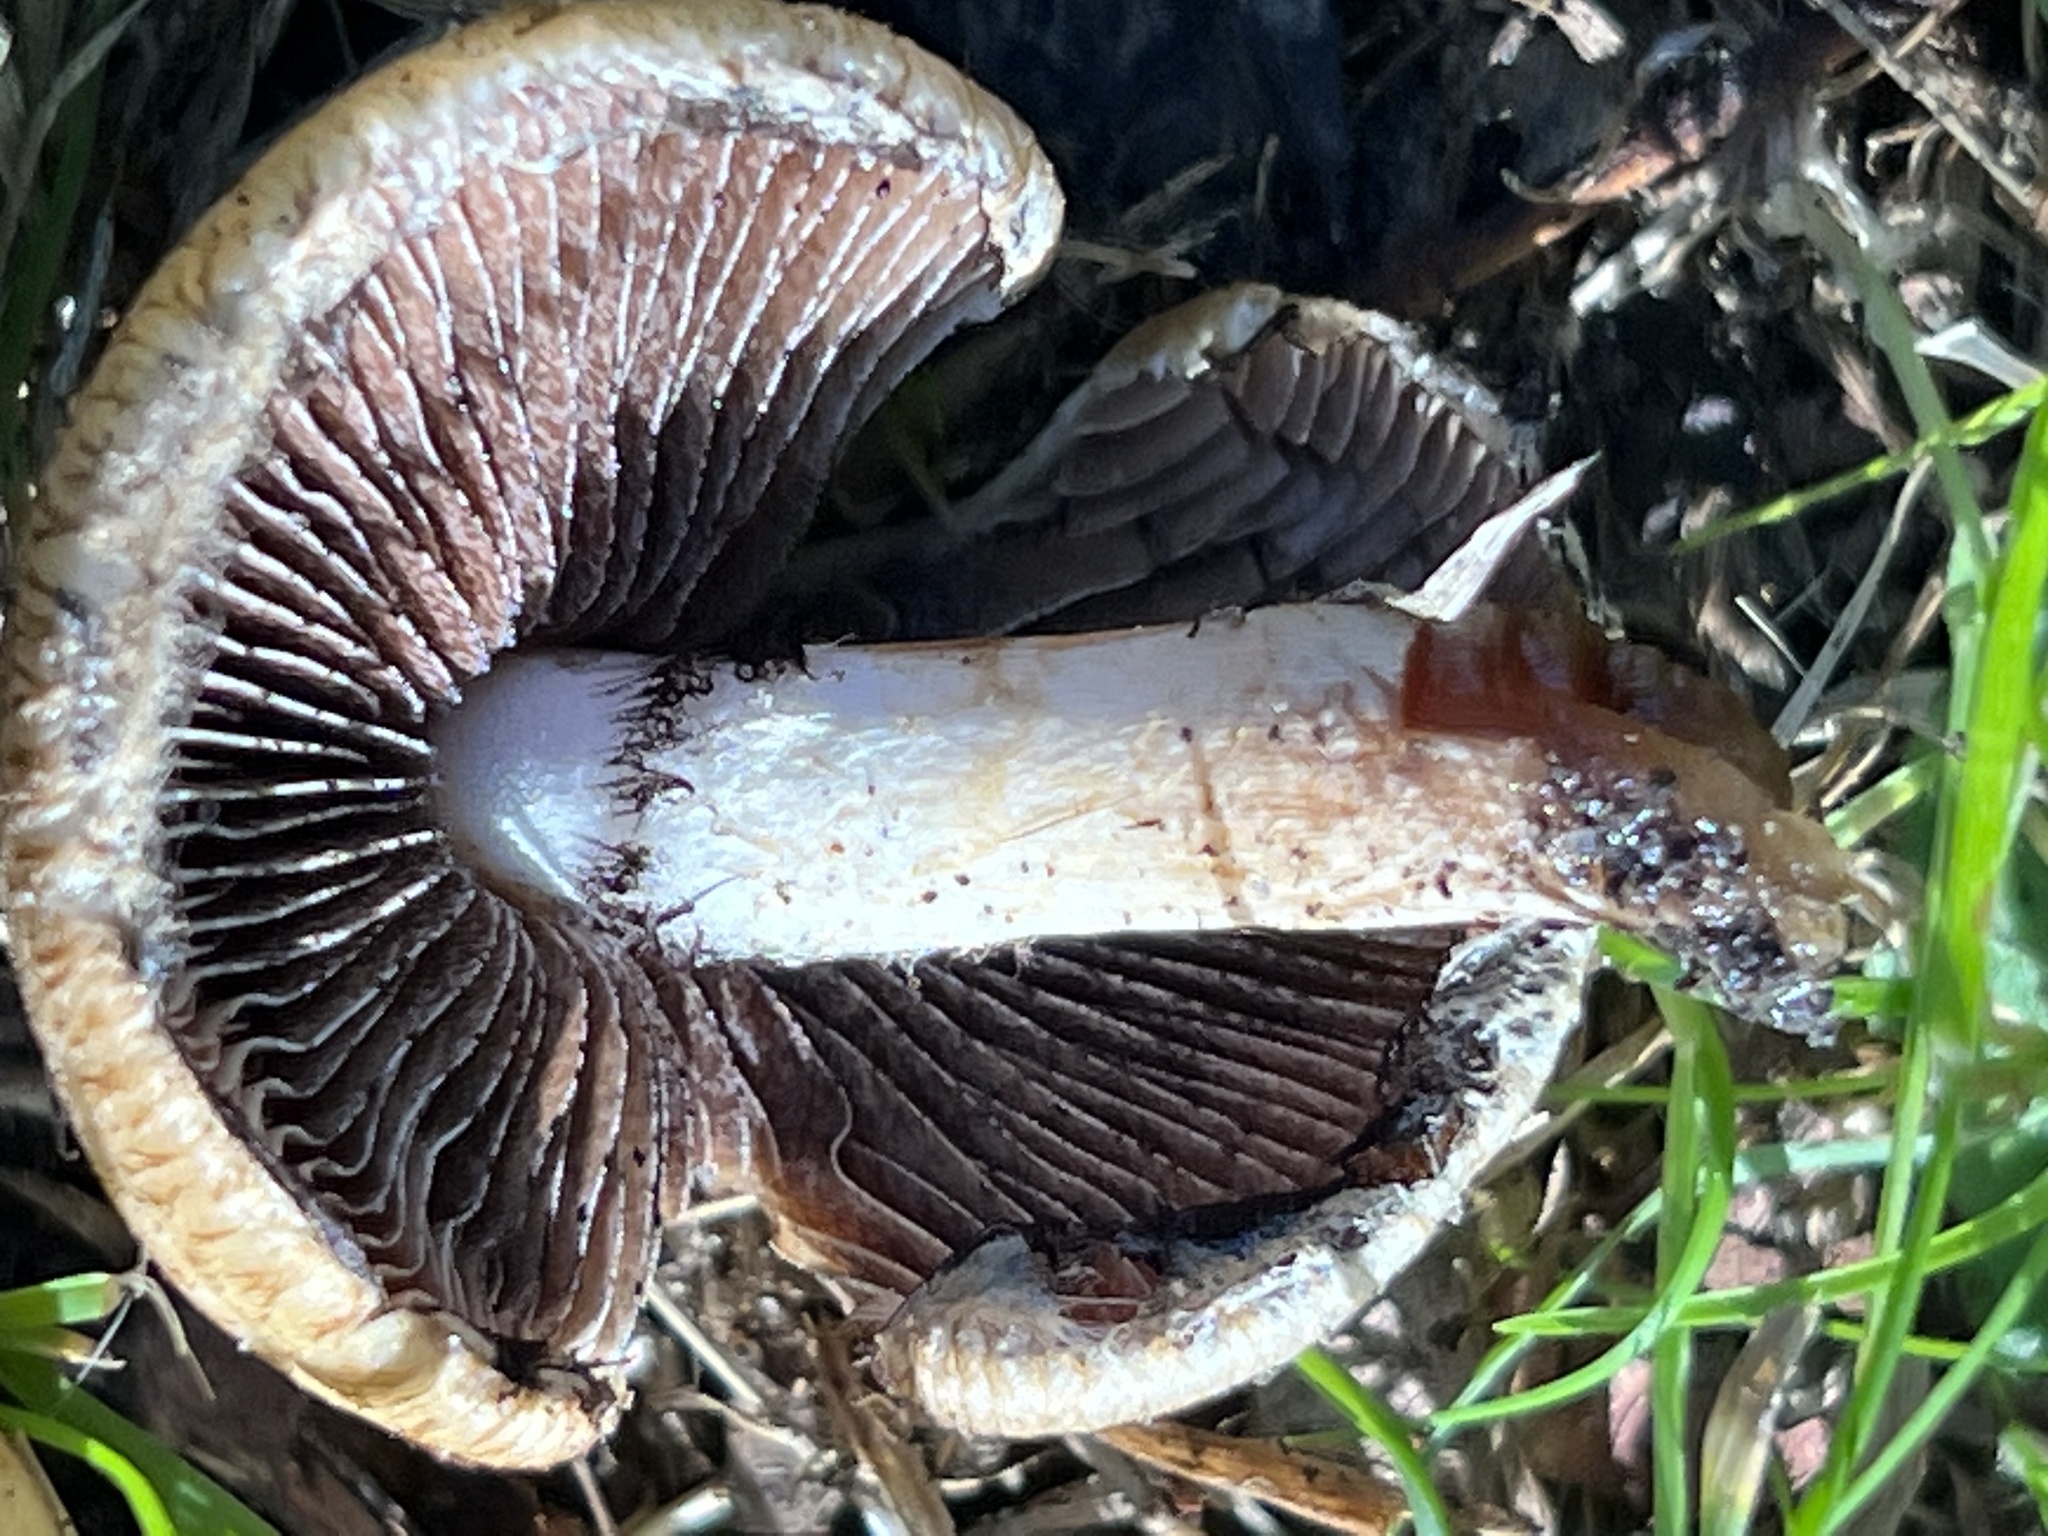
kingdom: Fungi
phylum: Basidiomycota
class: Agaricomycetes
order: Agaricales
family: Psathyrellaceae
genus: Lacrymaria
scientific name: Lacrymaria lacrymabunda
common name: Weeping widow
